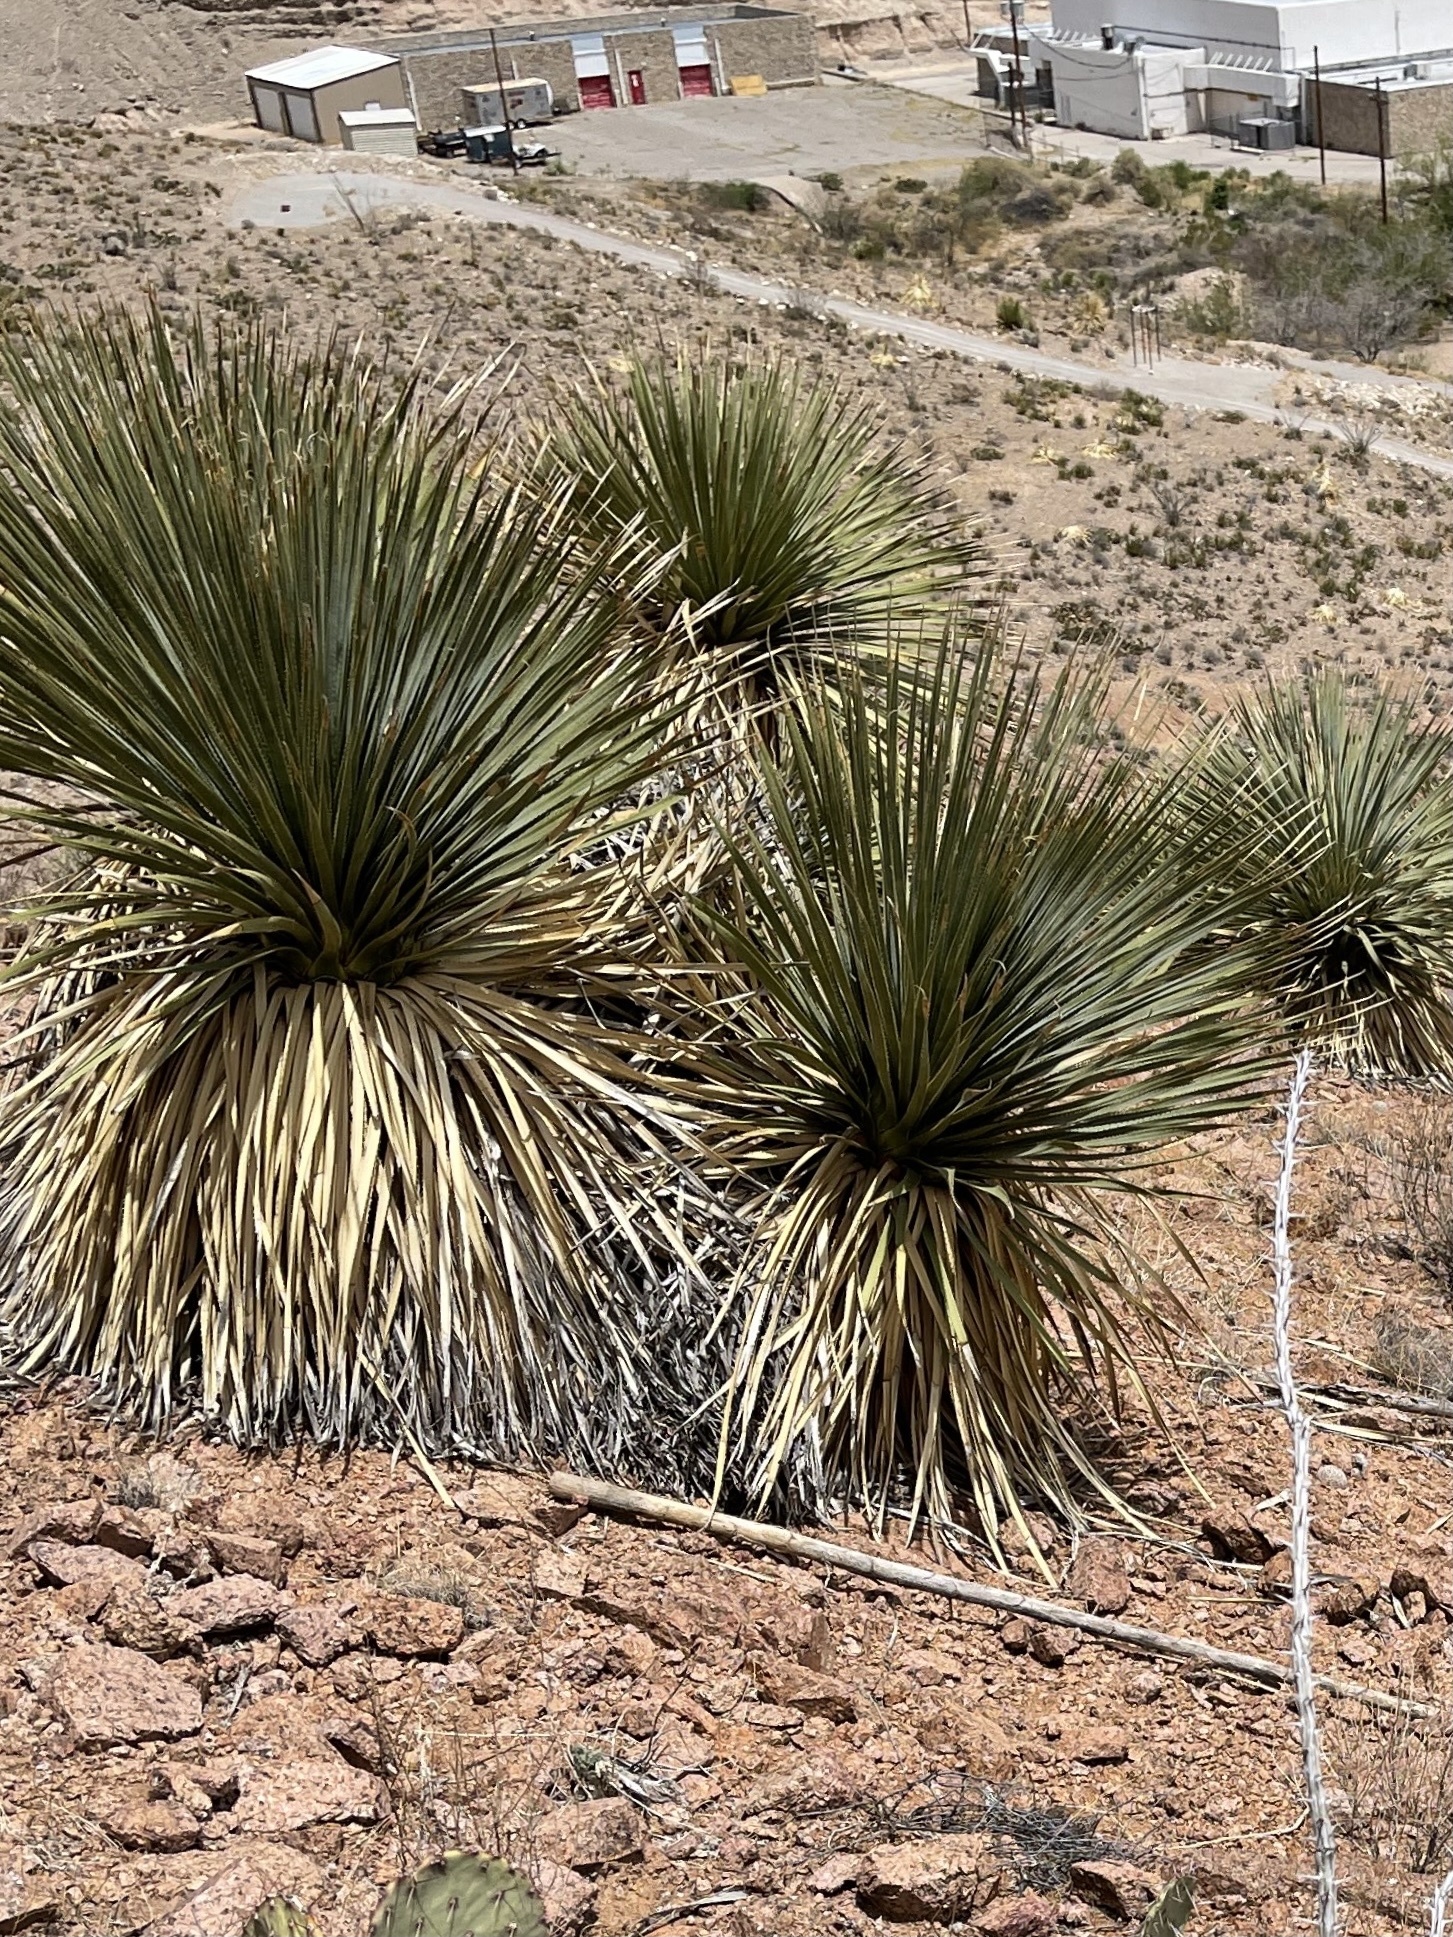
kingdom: Plantae
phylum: Tracheophyta
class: Liliopsida
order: Asparagales
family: Asparagaceae
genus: Dasylirion
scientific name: Dasylirion wheeleri
